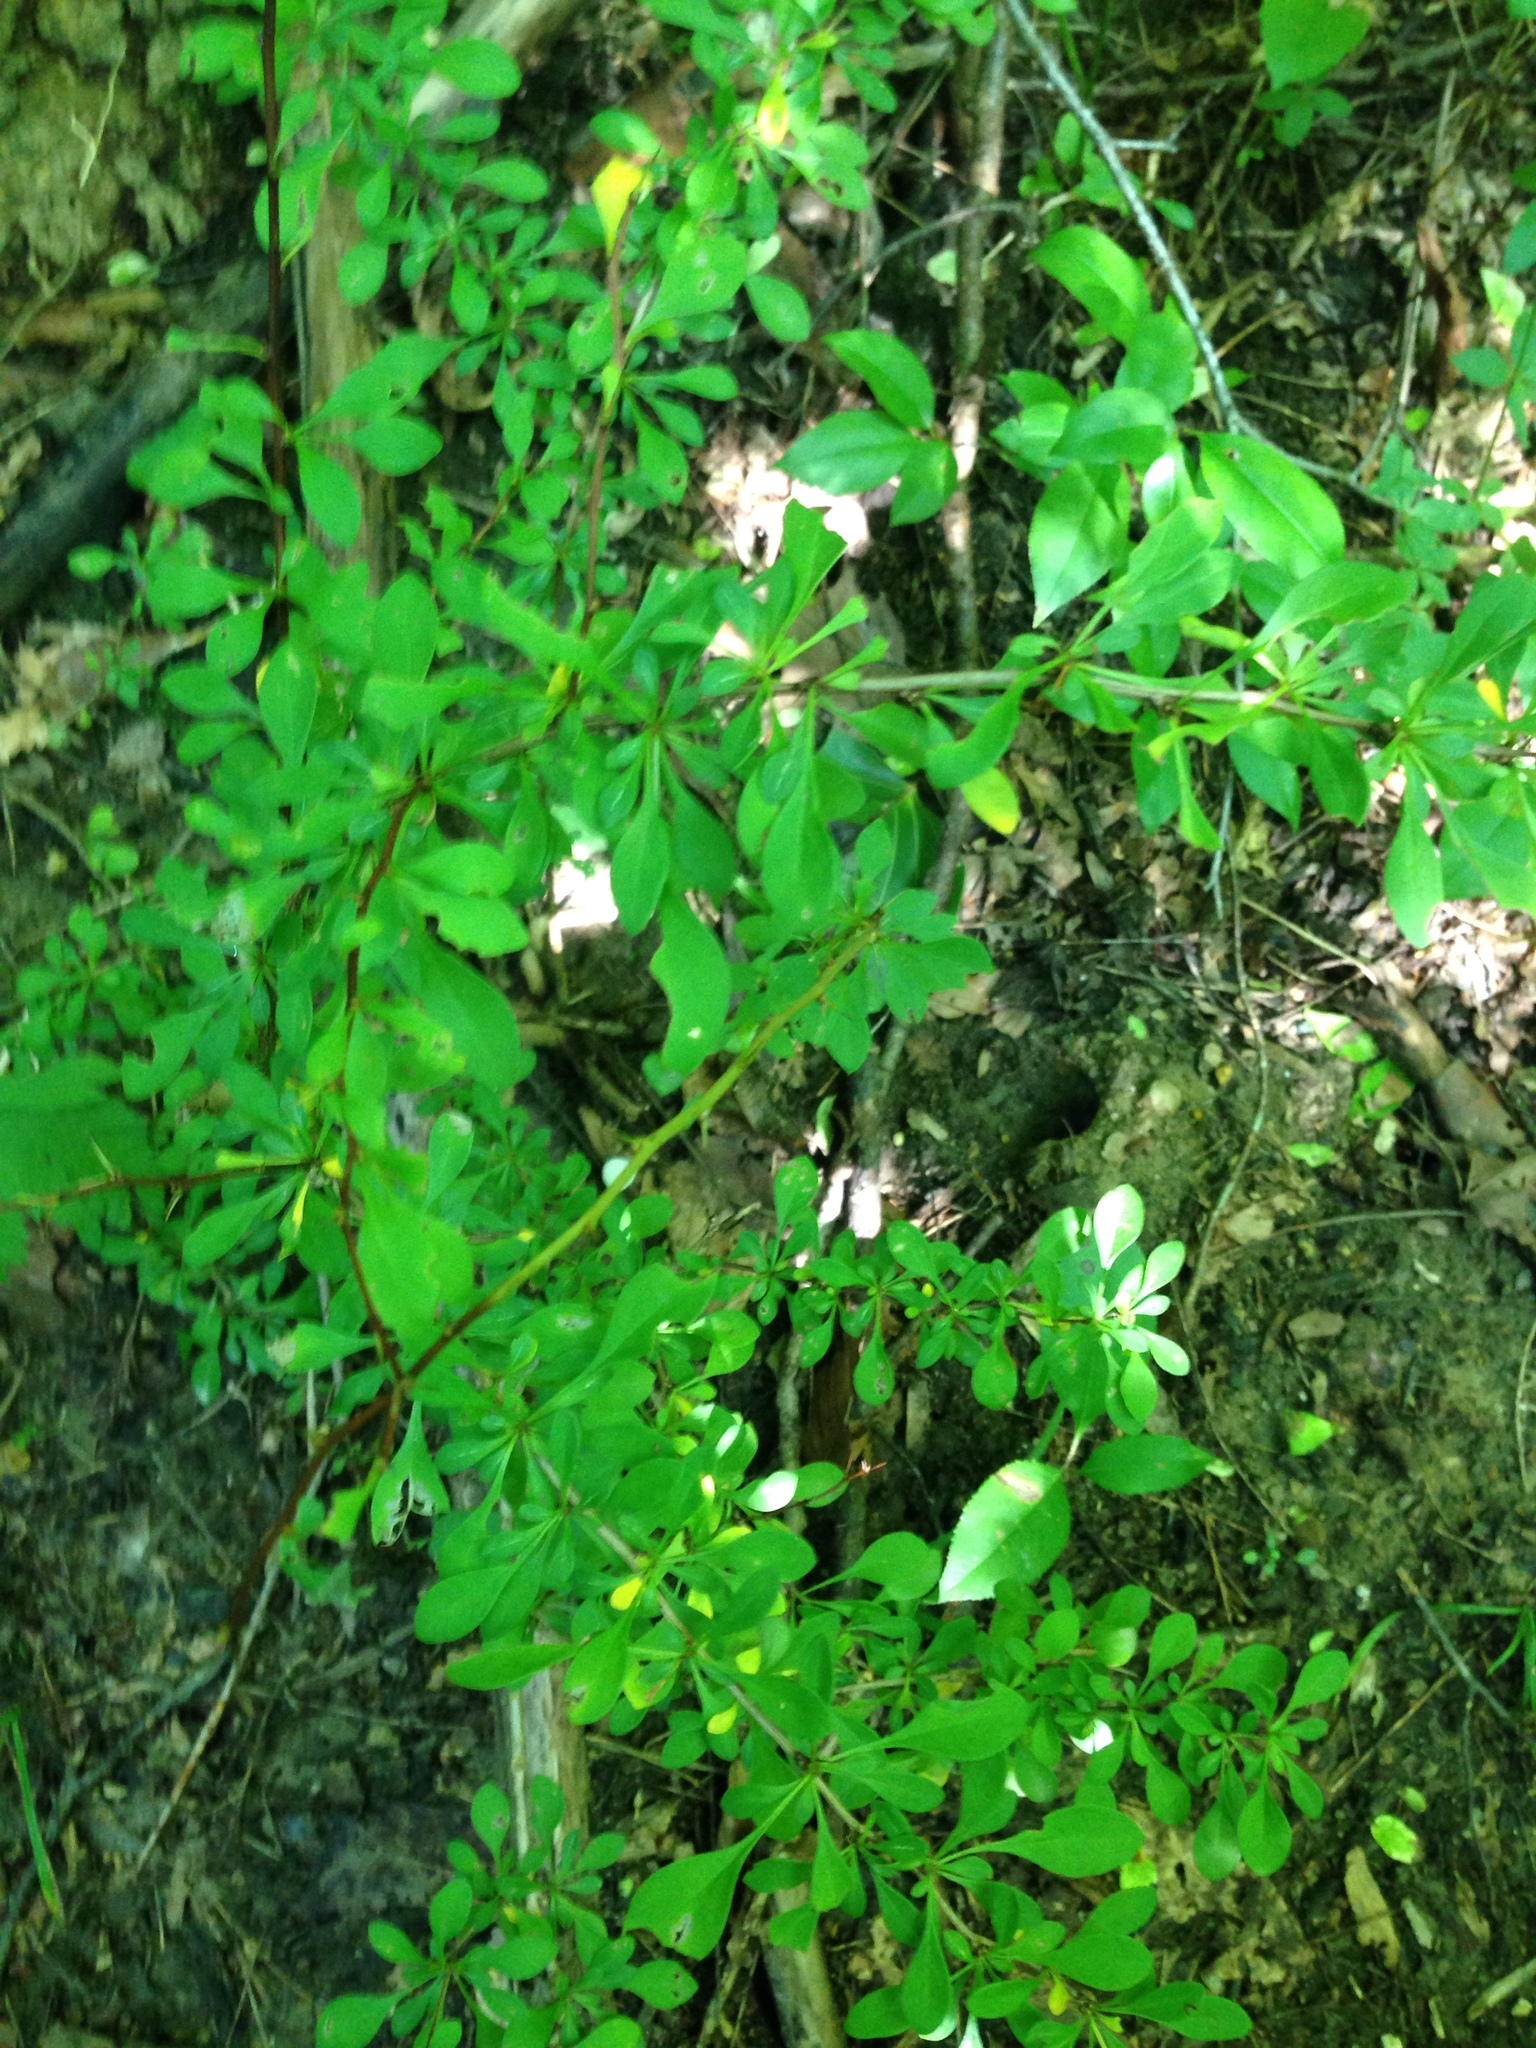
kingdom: Plantae
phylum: Tracheophyta
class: Magnoliopsida
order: Ranunculales
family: Berberidaceae
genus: Berberis
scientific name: Berberis thunbergii
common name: Japanese barberry
